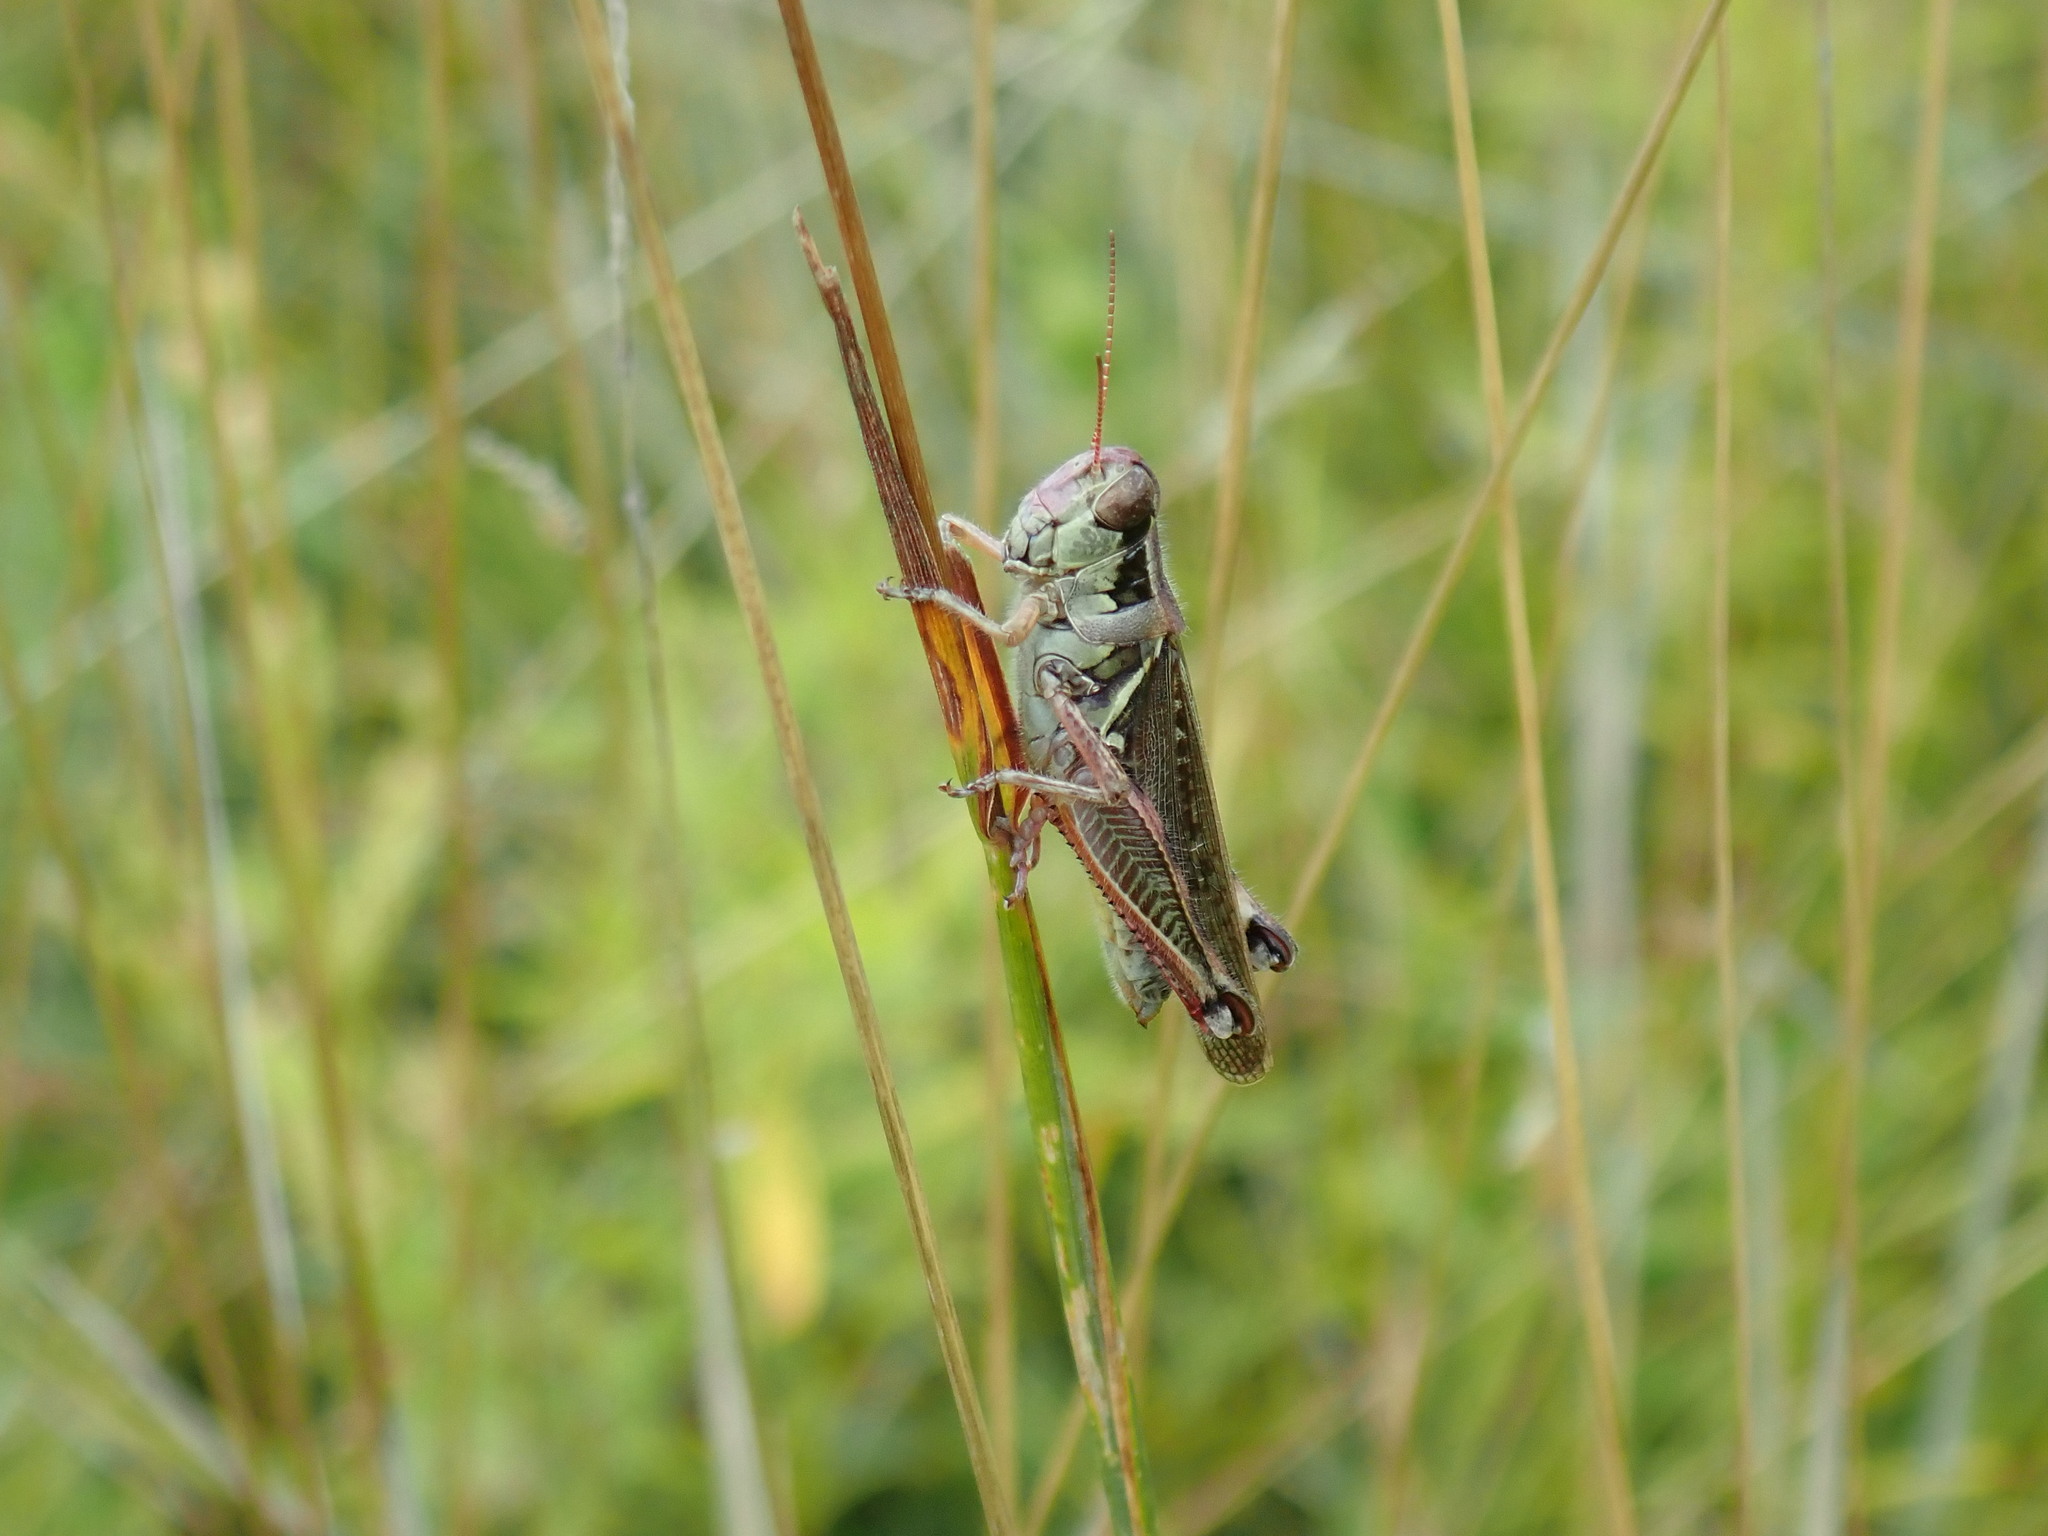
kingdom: Animalia
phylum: Arthropoda
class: Insecta
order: Orthoptera
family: Acrididae
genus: Melanoplus
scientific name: Melanoplus femurrubrum
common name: Red-legged grasshopper
